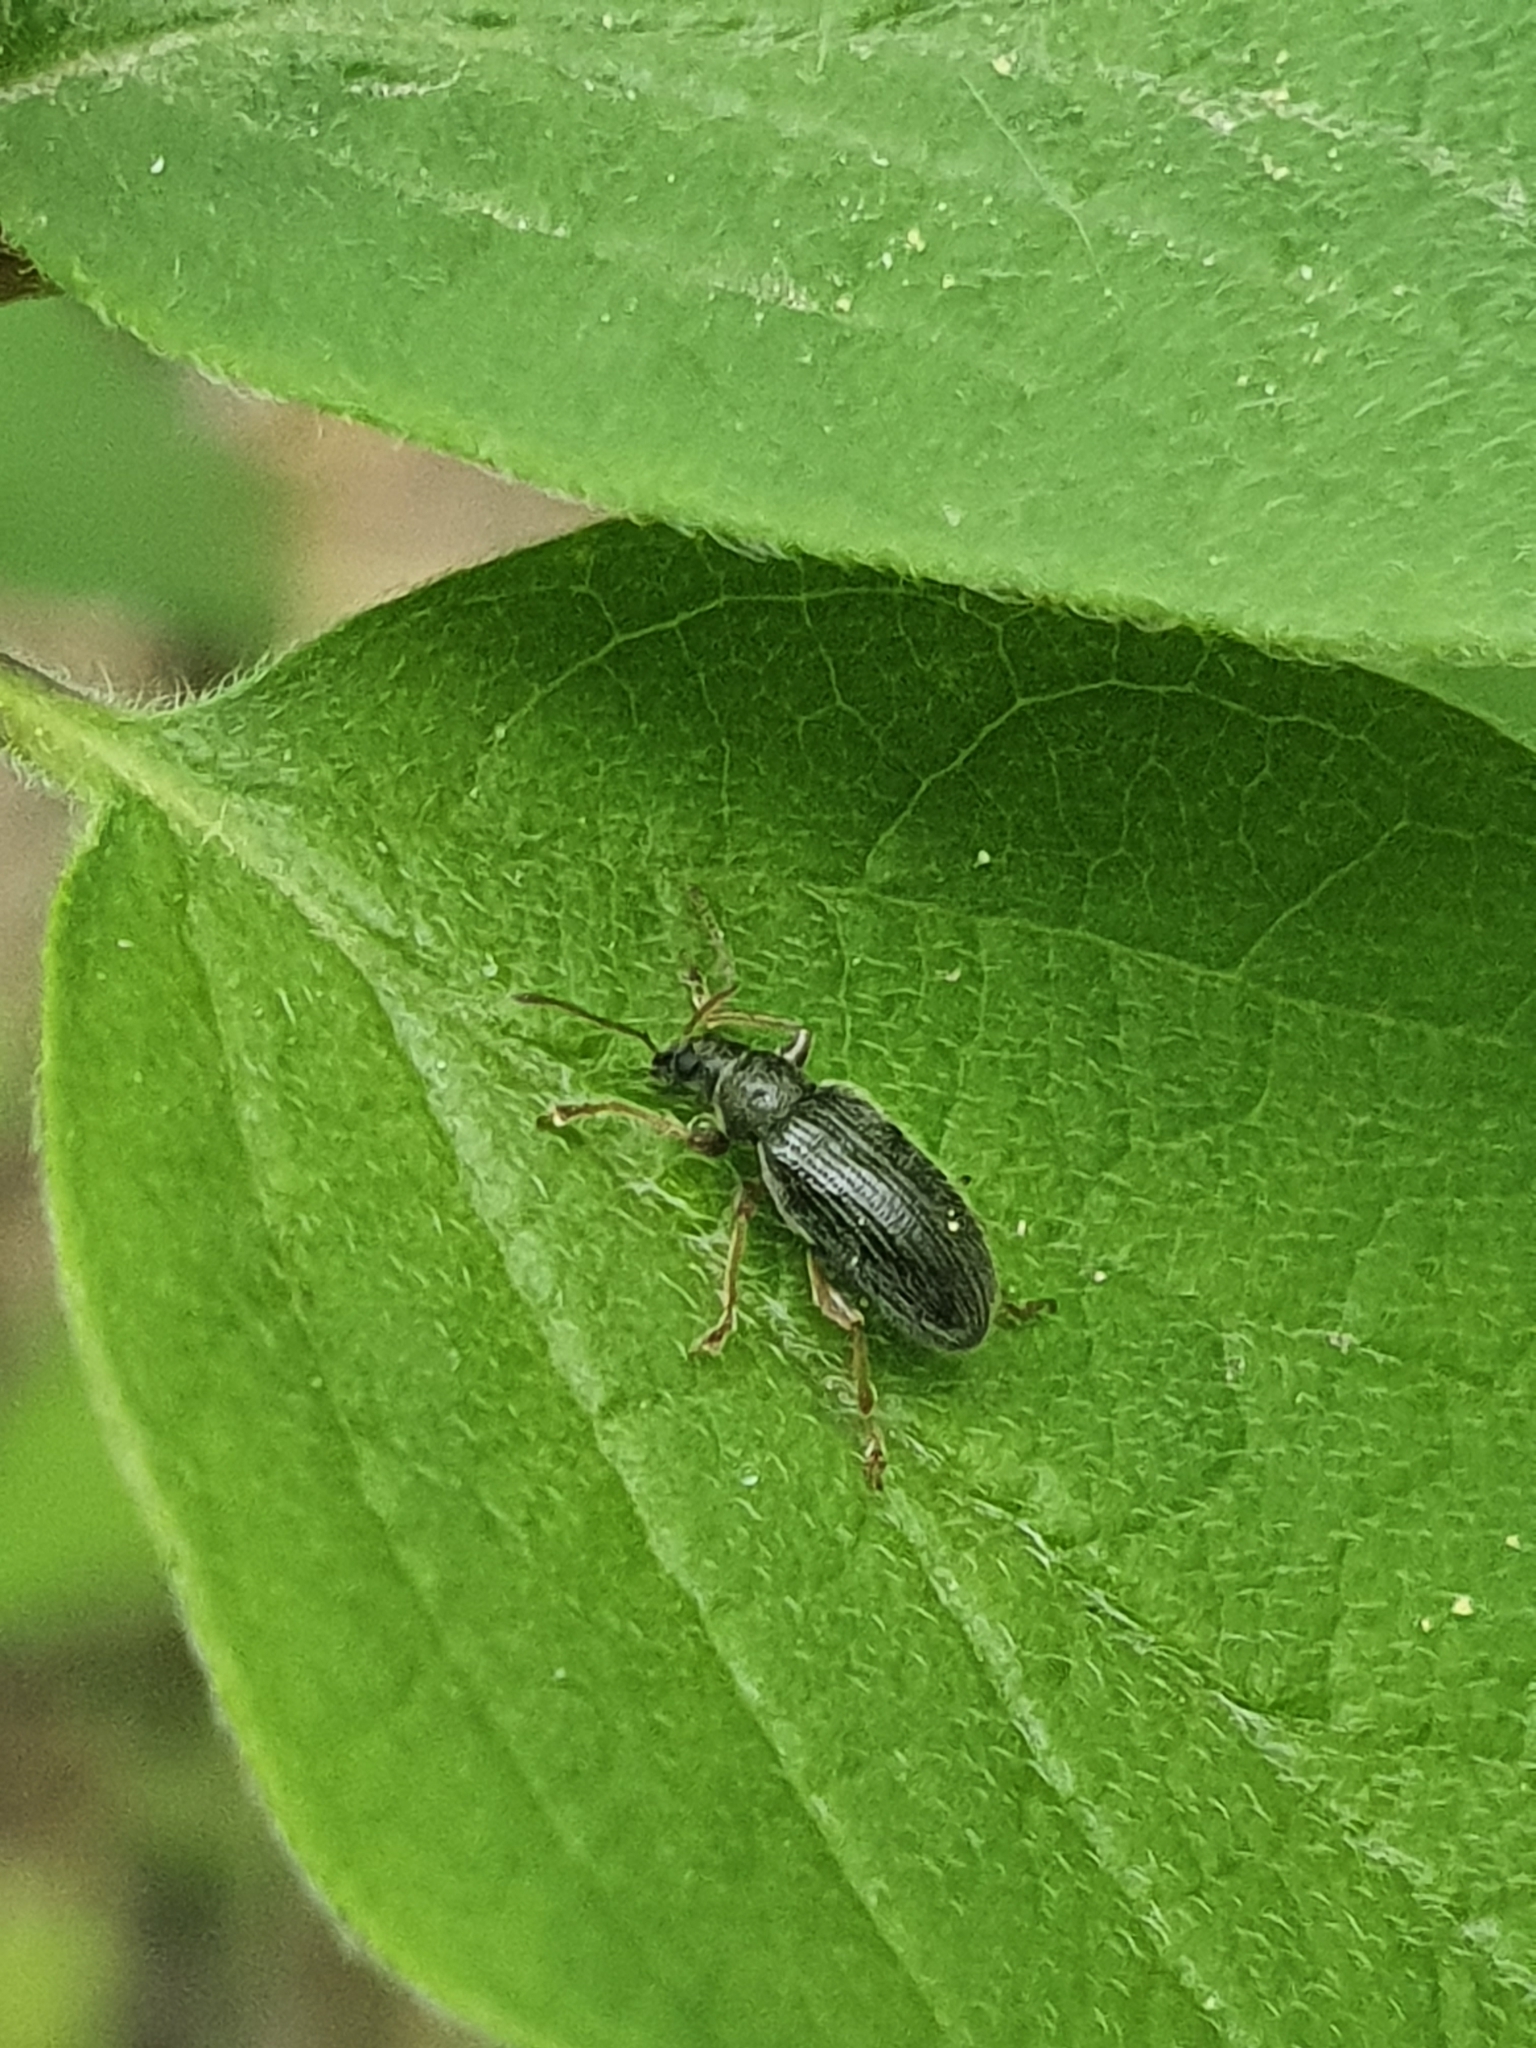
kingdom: Animalia
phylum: Arthropoda
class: Insecta
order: Coleoptera
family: Curculionidae
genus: Phyllobius
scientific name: Phyllobius oblongus
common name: Brown leaf weevil
